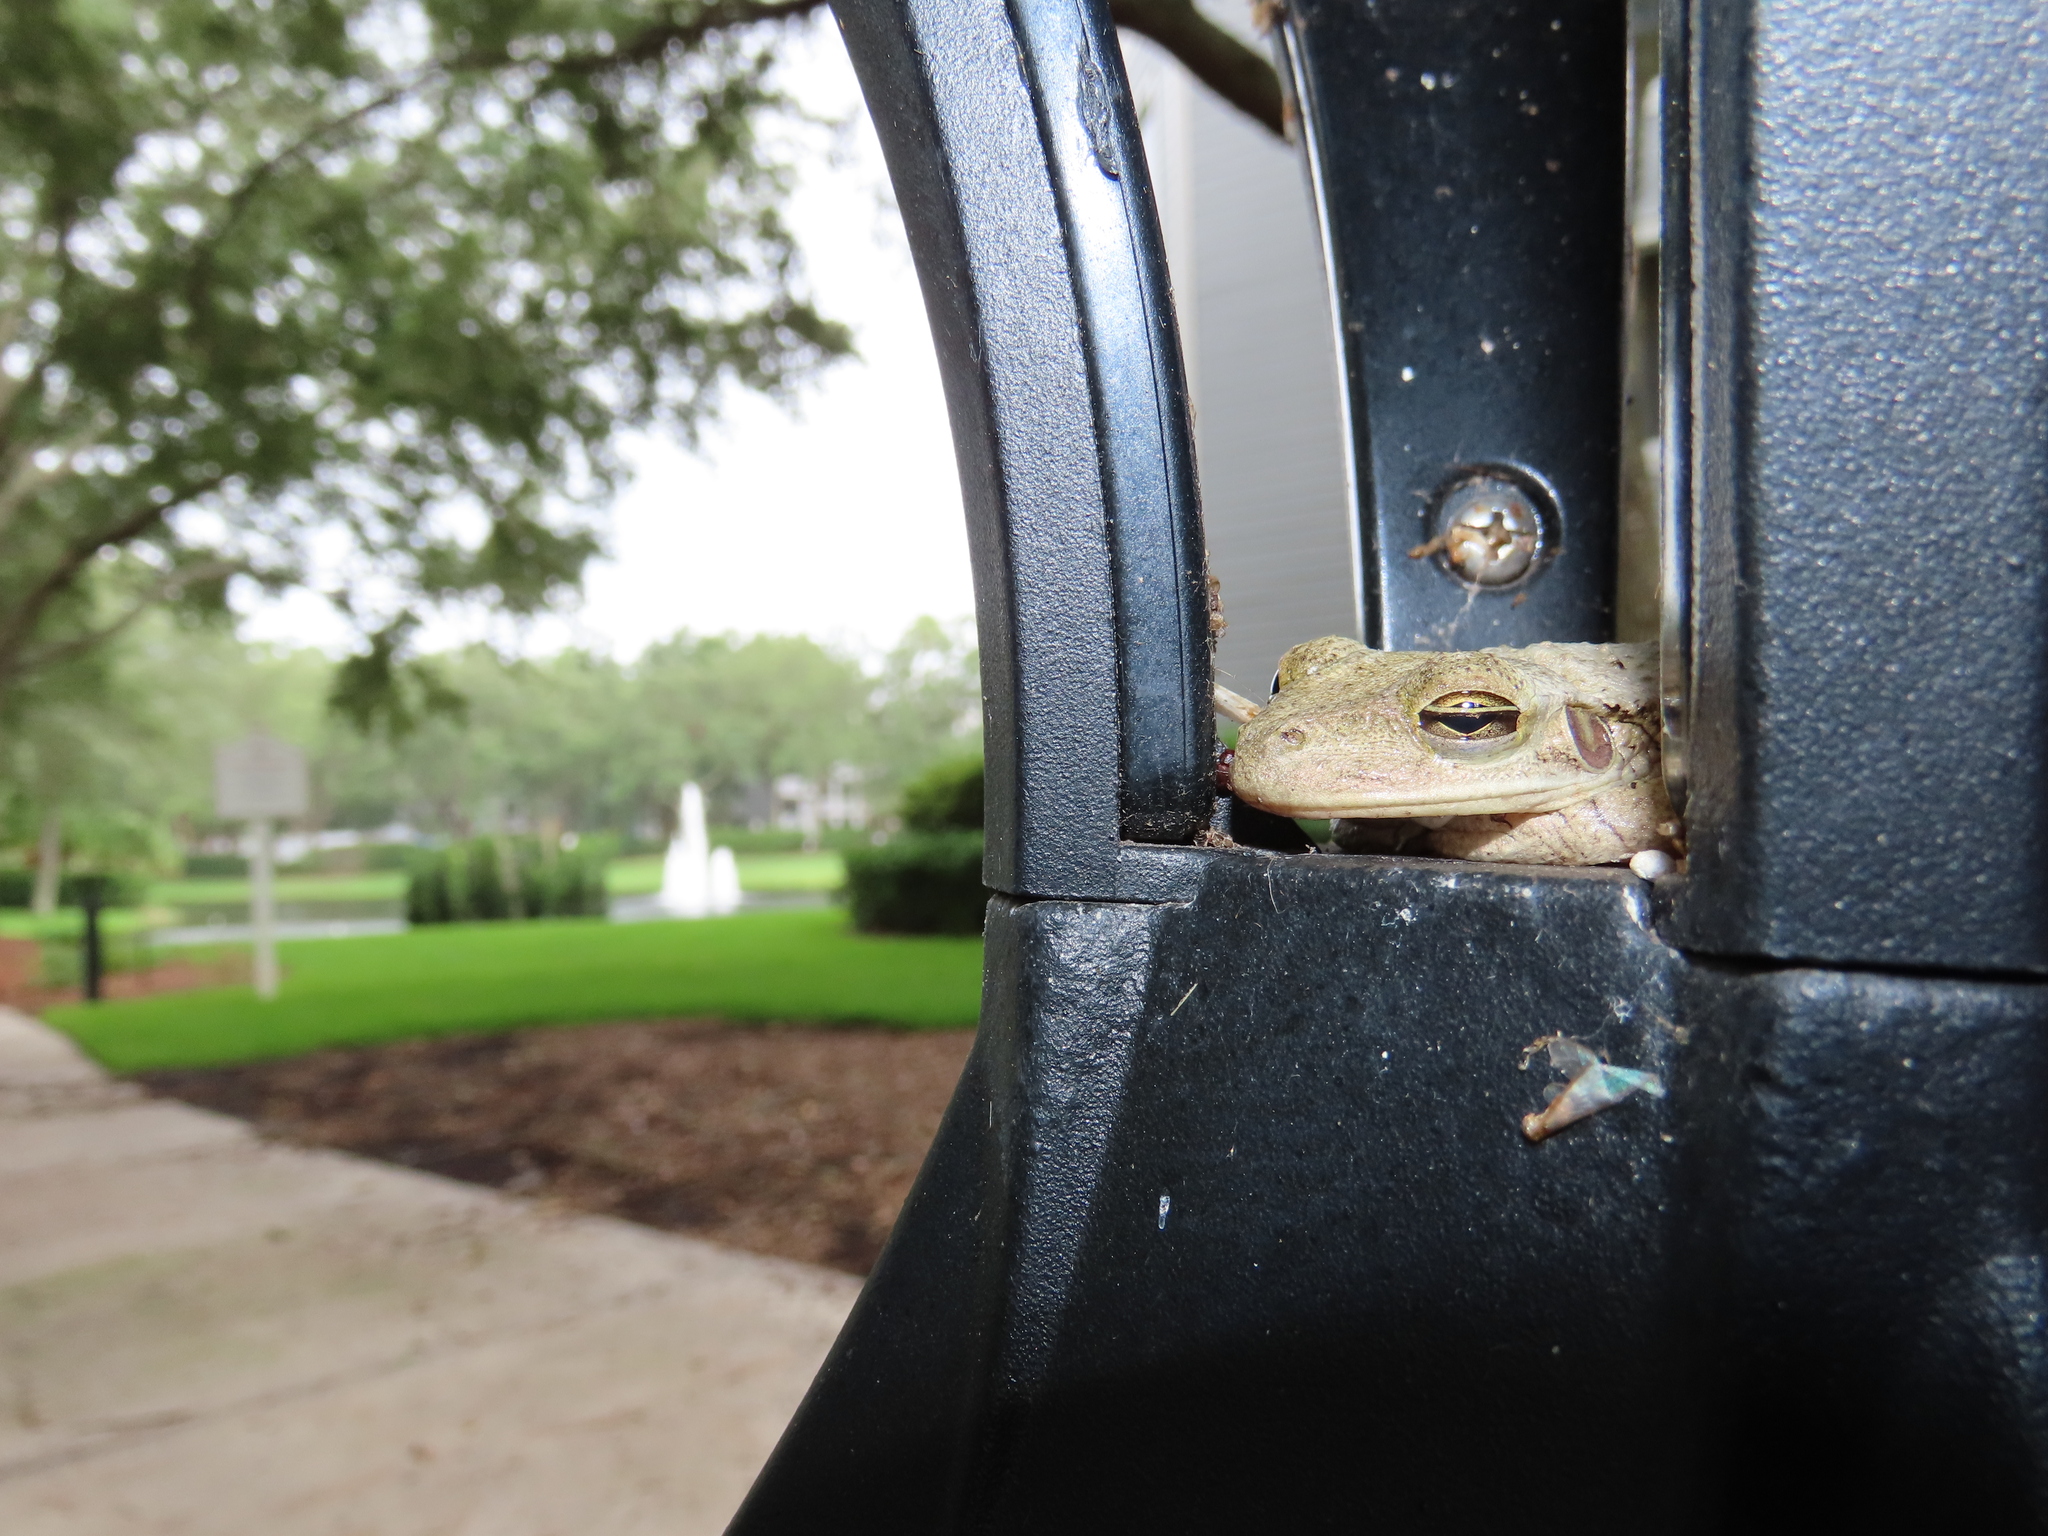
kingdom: Animalia
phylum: Chordata
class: Amphibia
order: Anura
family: Hylidae
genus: Osteopilus
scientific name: Osteopilus septentrionalis
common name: Cuban treefrog
